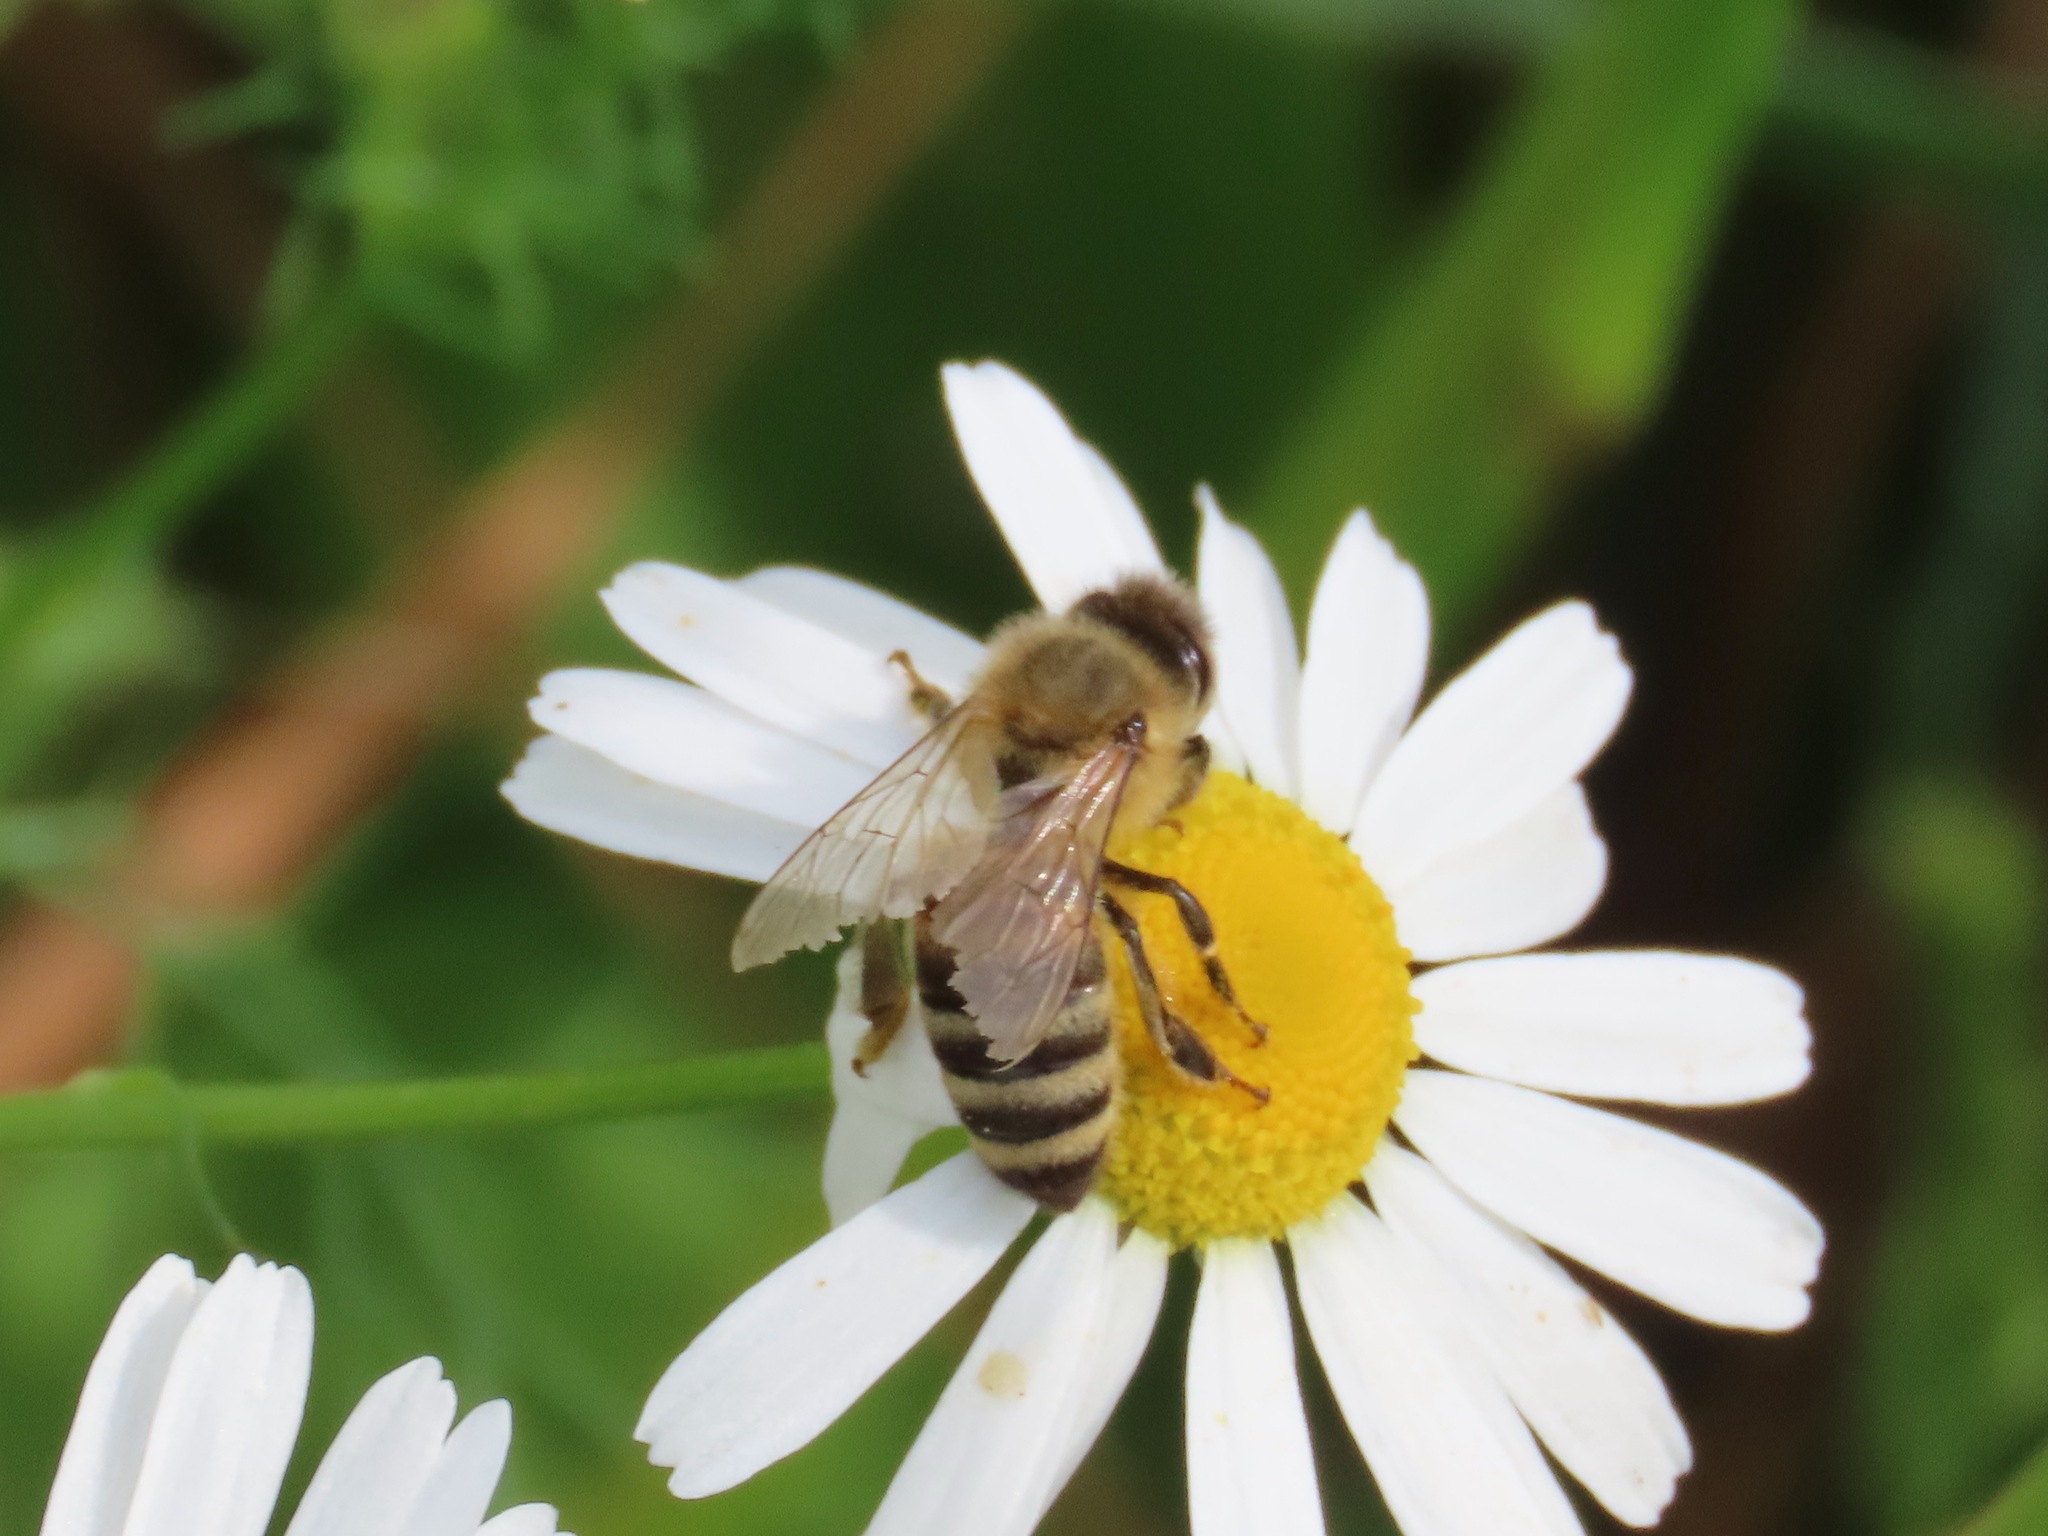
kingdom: Animalia
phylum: Arthropoda
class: Insecta
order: Hymenoptera
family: Apidae
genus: Apis
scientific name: Apis mellifera
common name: Honey bee
